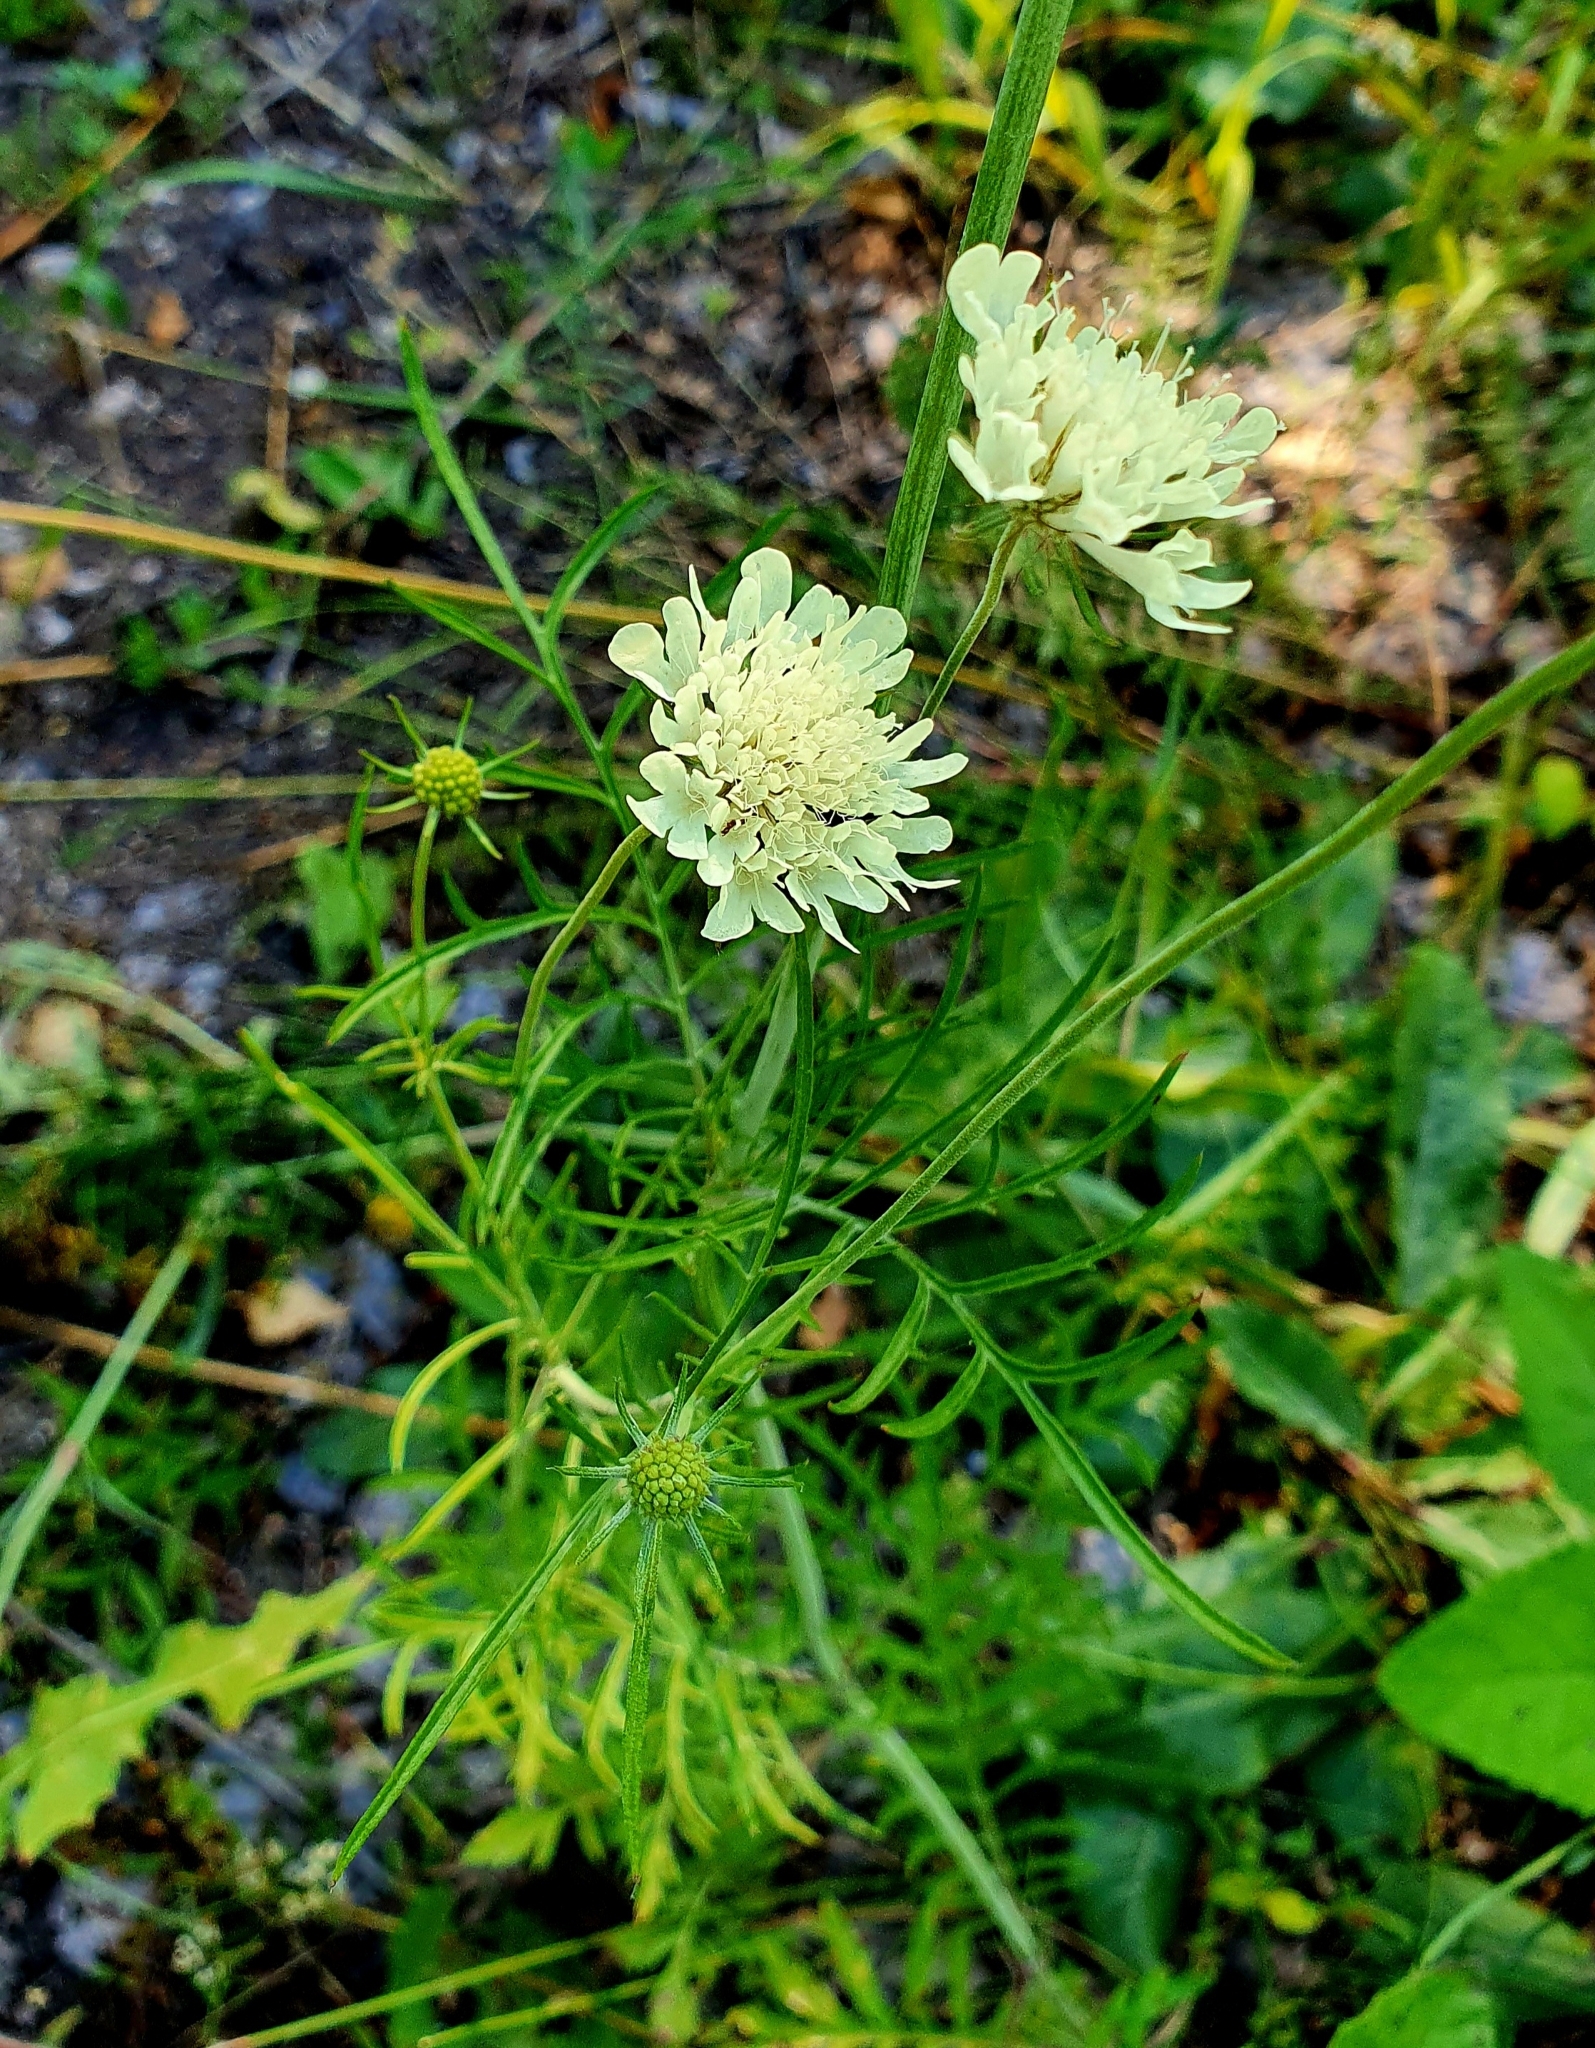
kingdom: Plantae
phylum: Tracheophyta
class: Magnoliopsida
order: Dipsacales
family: Caprifoliaceae
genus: Scabiosa
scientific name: Scabiosa ochroleuca
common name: Cream pincushions
